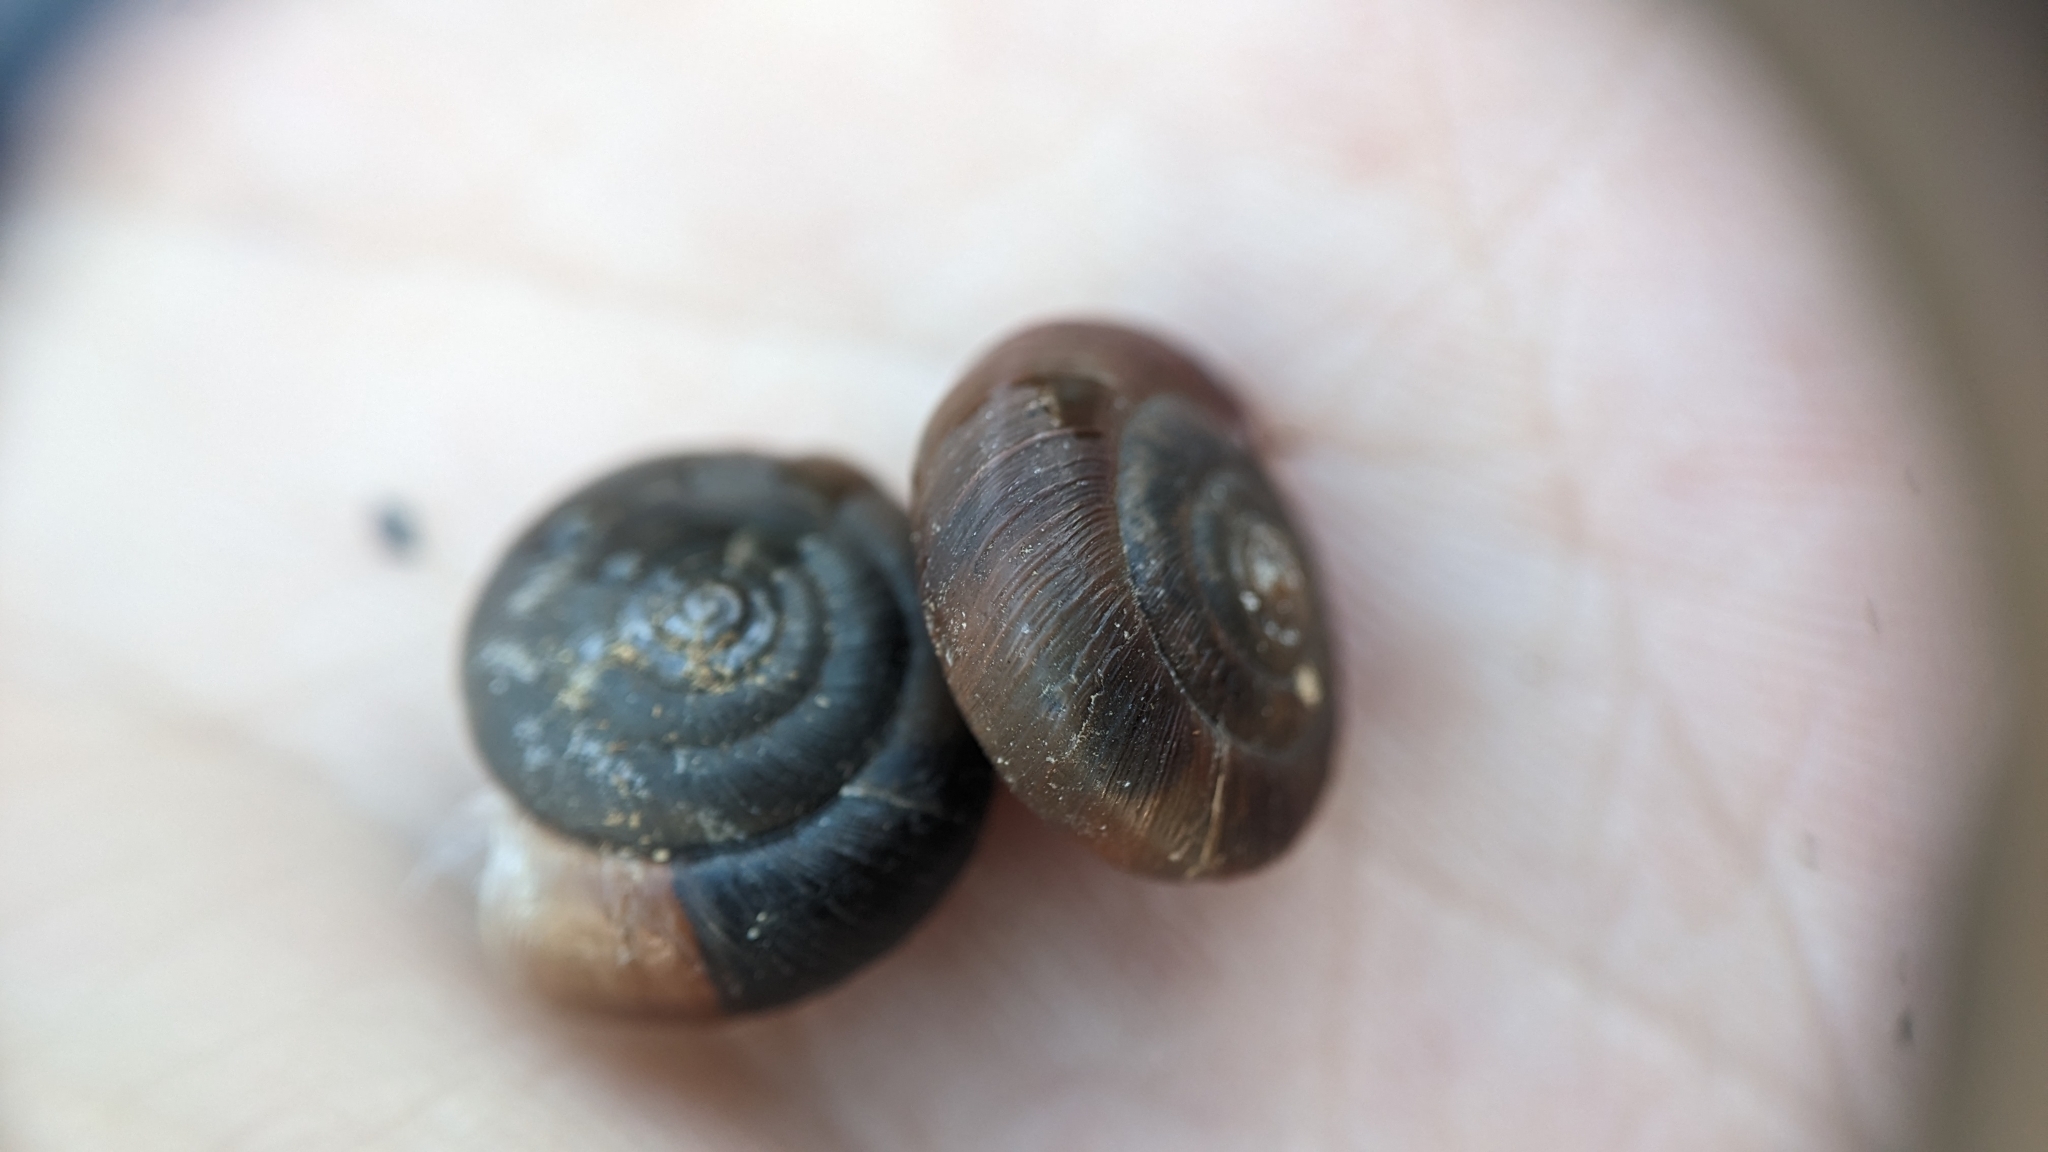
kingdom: Animalia
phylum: Mollusca
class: Gastropoda
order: Stylommatophora
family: Hygromiidae
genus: Trochulus
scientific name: Trochulus striolatus
